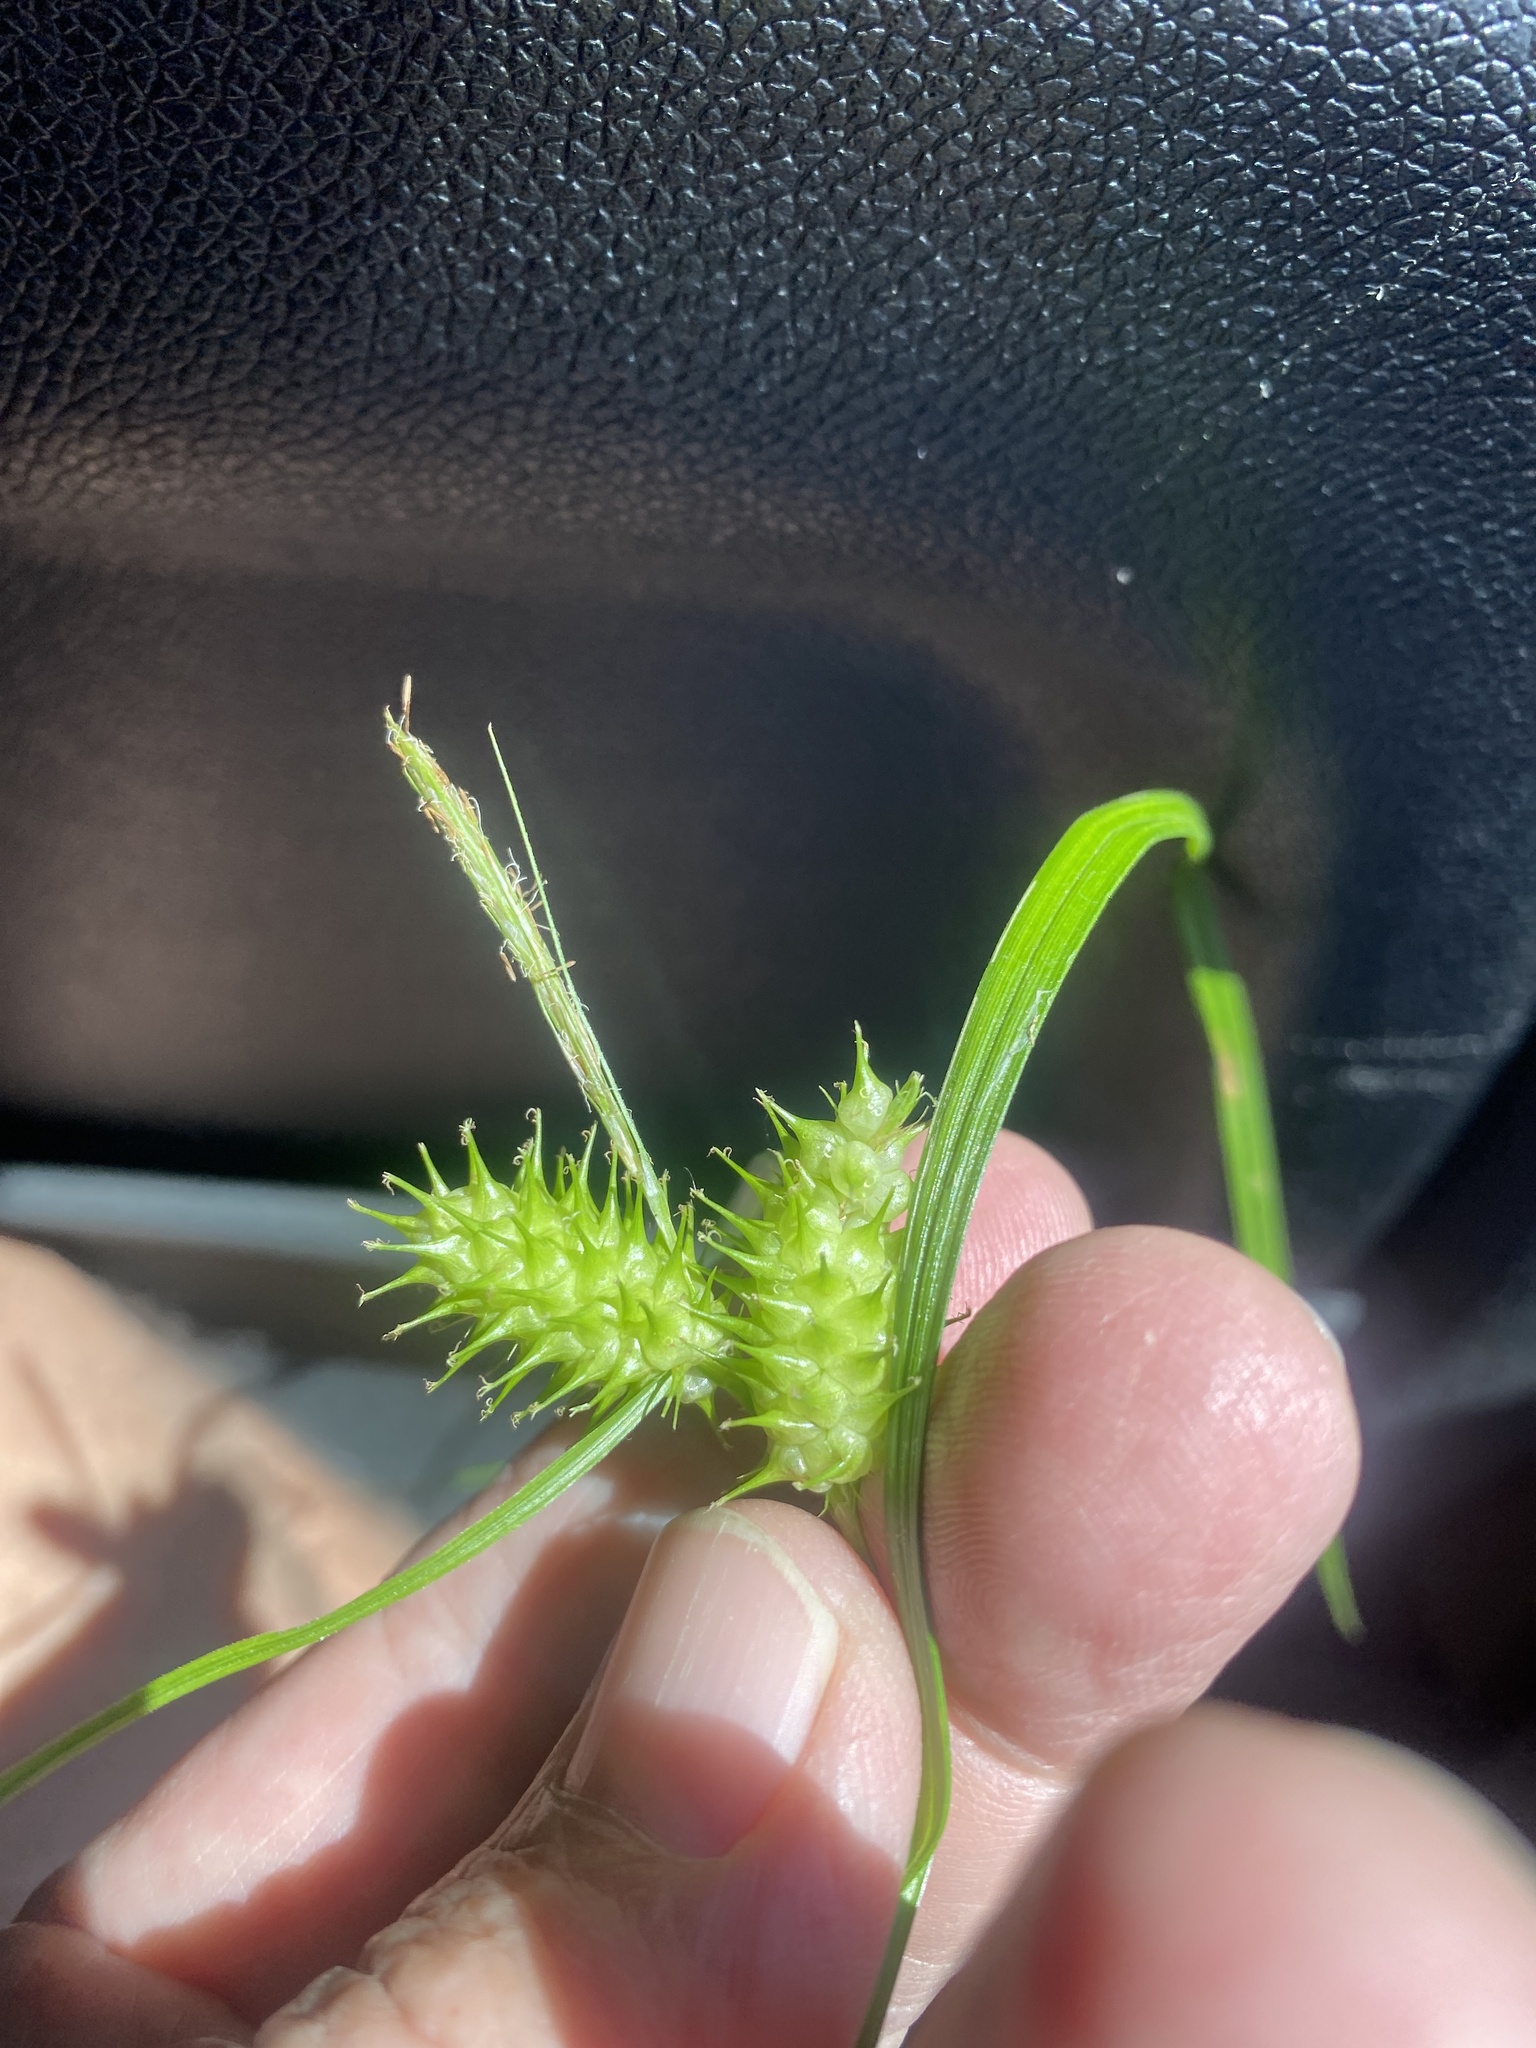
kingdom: Plantae
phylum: Tracheophyta
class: Liliopsida
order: Poales
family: Cyperaceae
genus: Carex
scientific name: Carex lurida
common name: Sallow sedge
